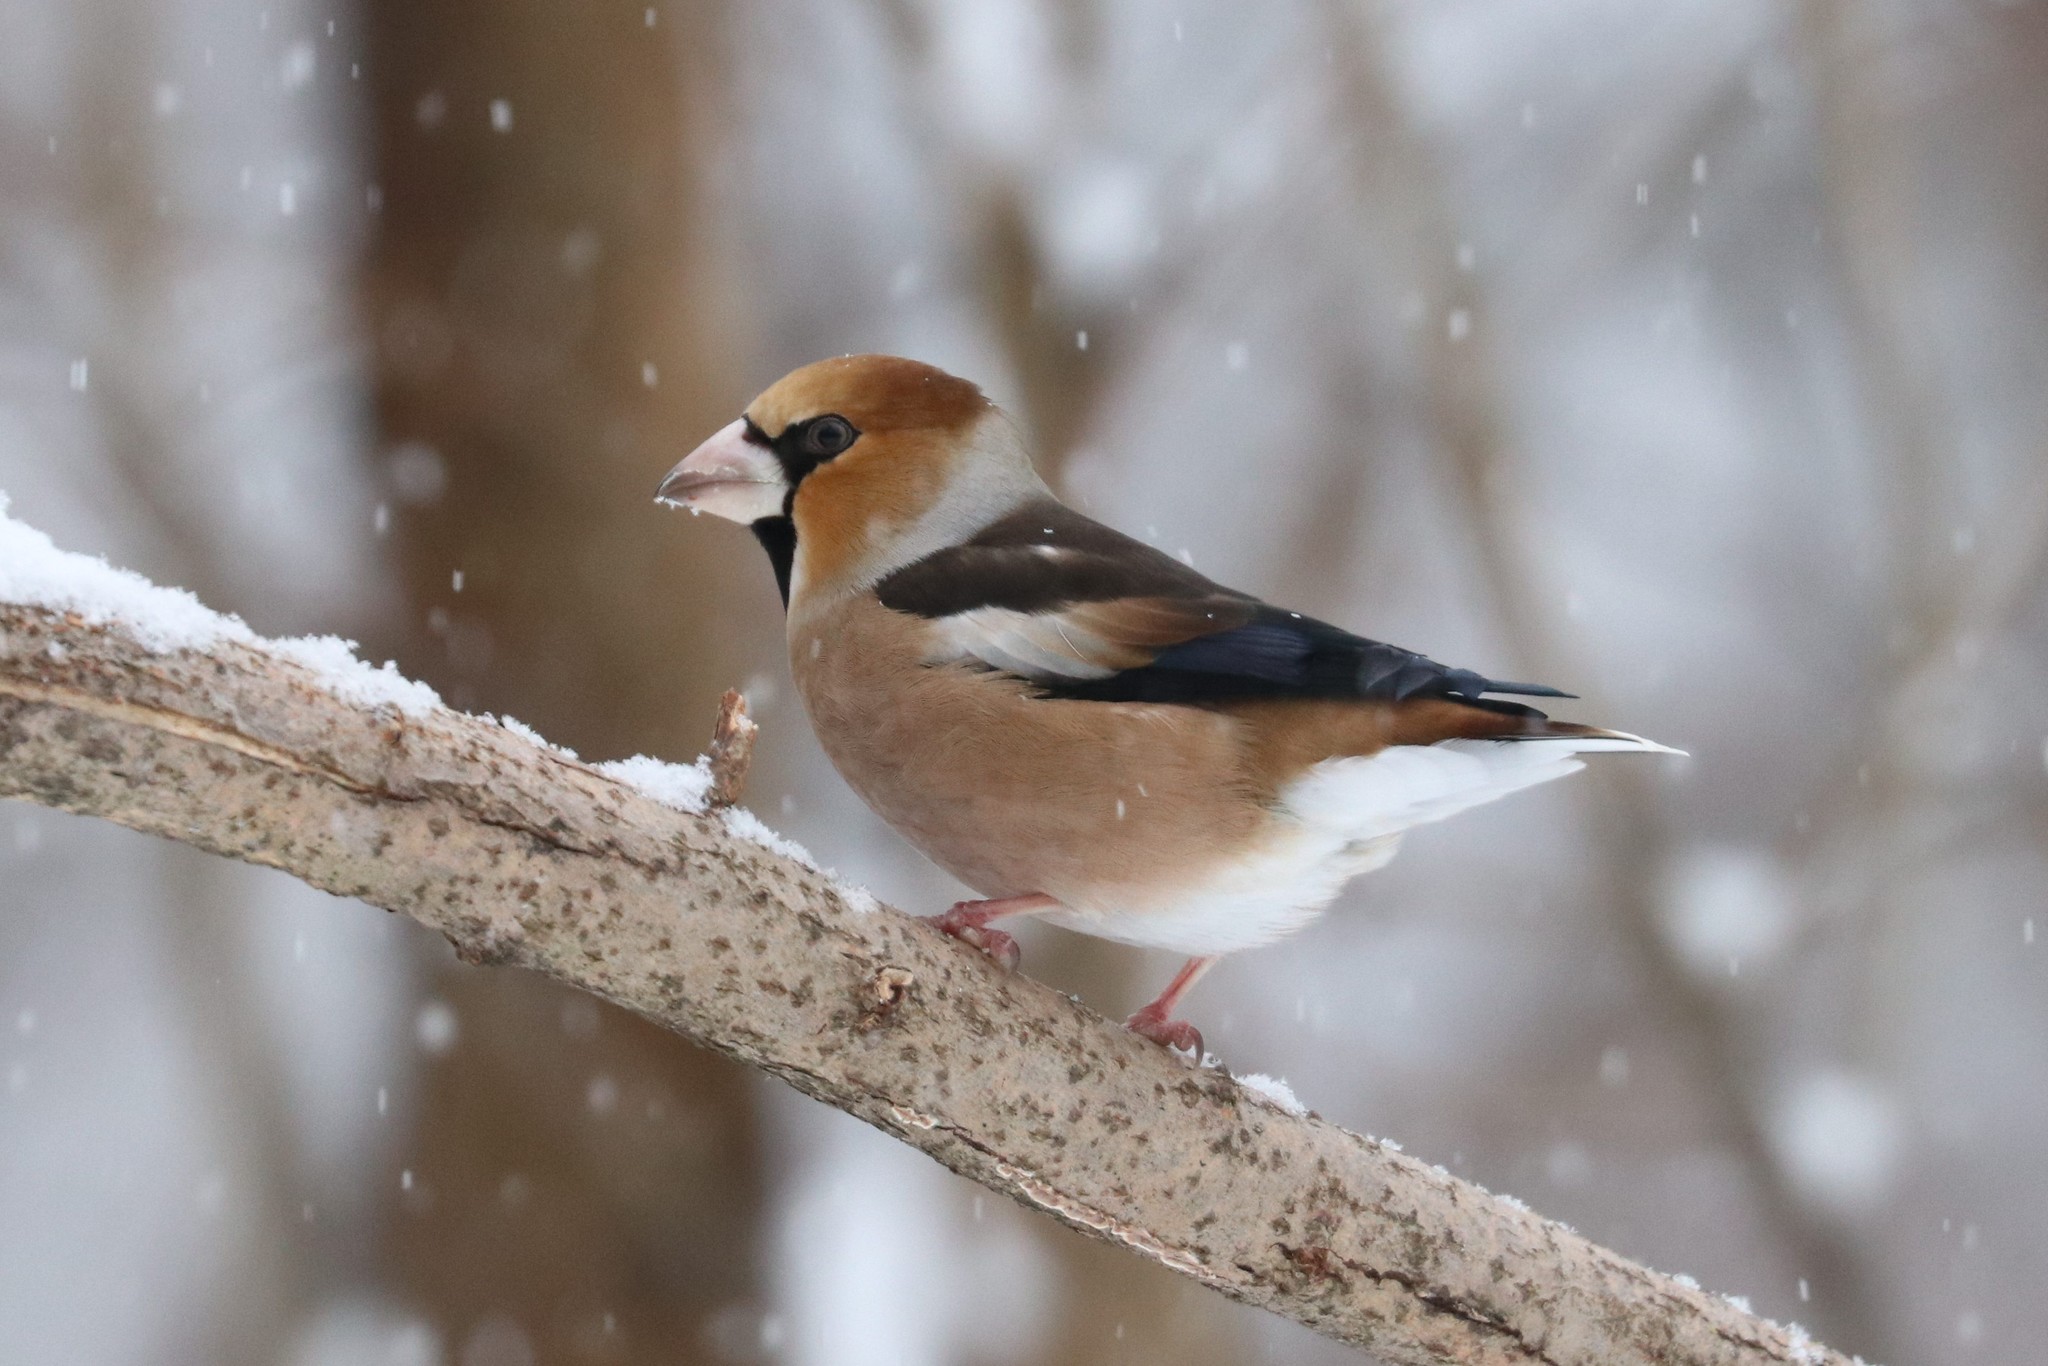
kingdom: Animalia
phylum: Chordata
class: Aves
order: Passeriformes
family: Fringillidae
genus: Coccothraustes
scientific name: Coccothraustes coccothraustes
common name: Hawfinch
